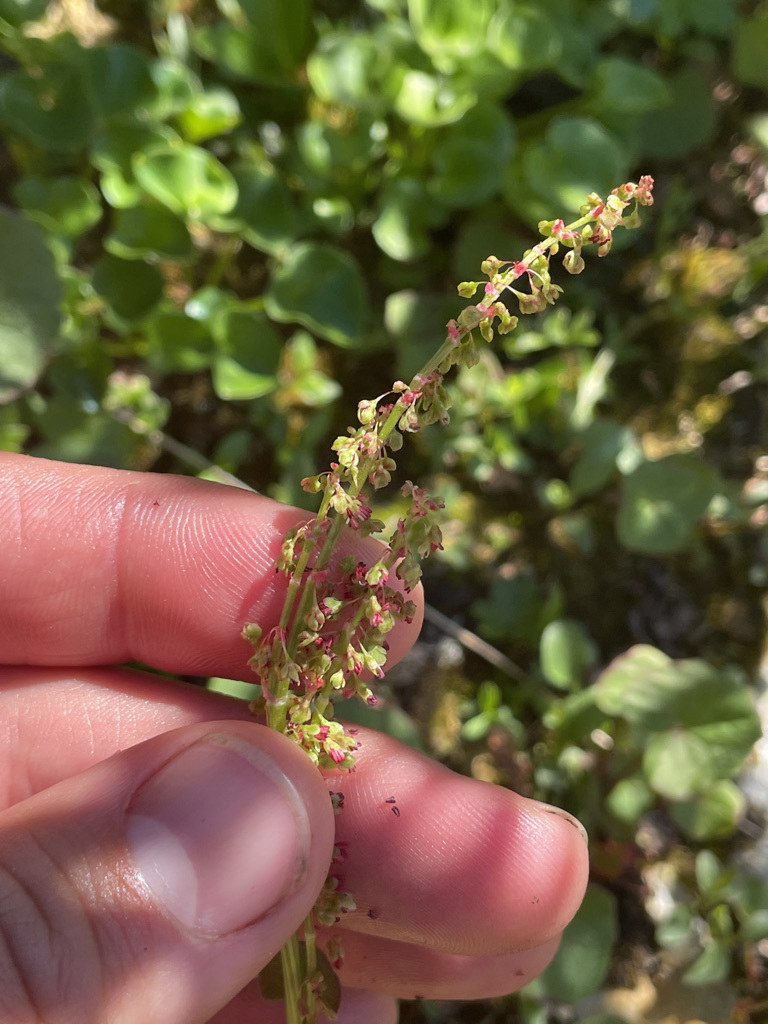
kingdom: Plantae
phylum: Tracheophyta
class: Magnoliopsida
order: Caryophyllales
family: Polygonaceae
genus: Oxyria
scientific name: Oxyria digyna
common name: Alpine mountain-sorrel
